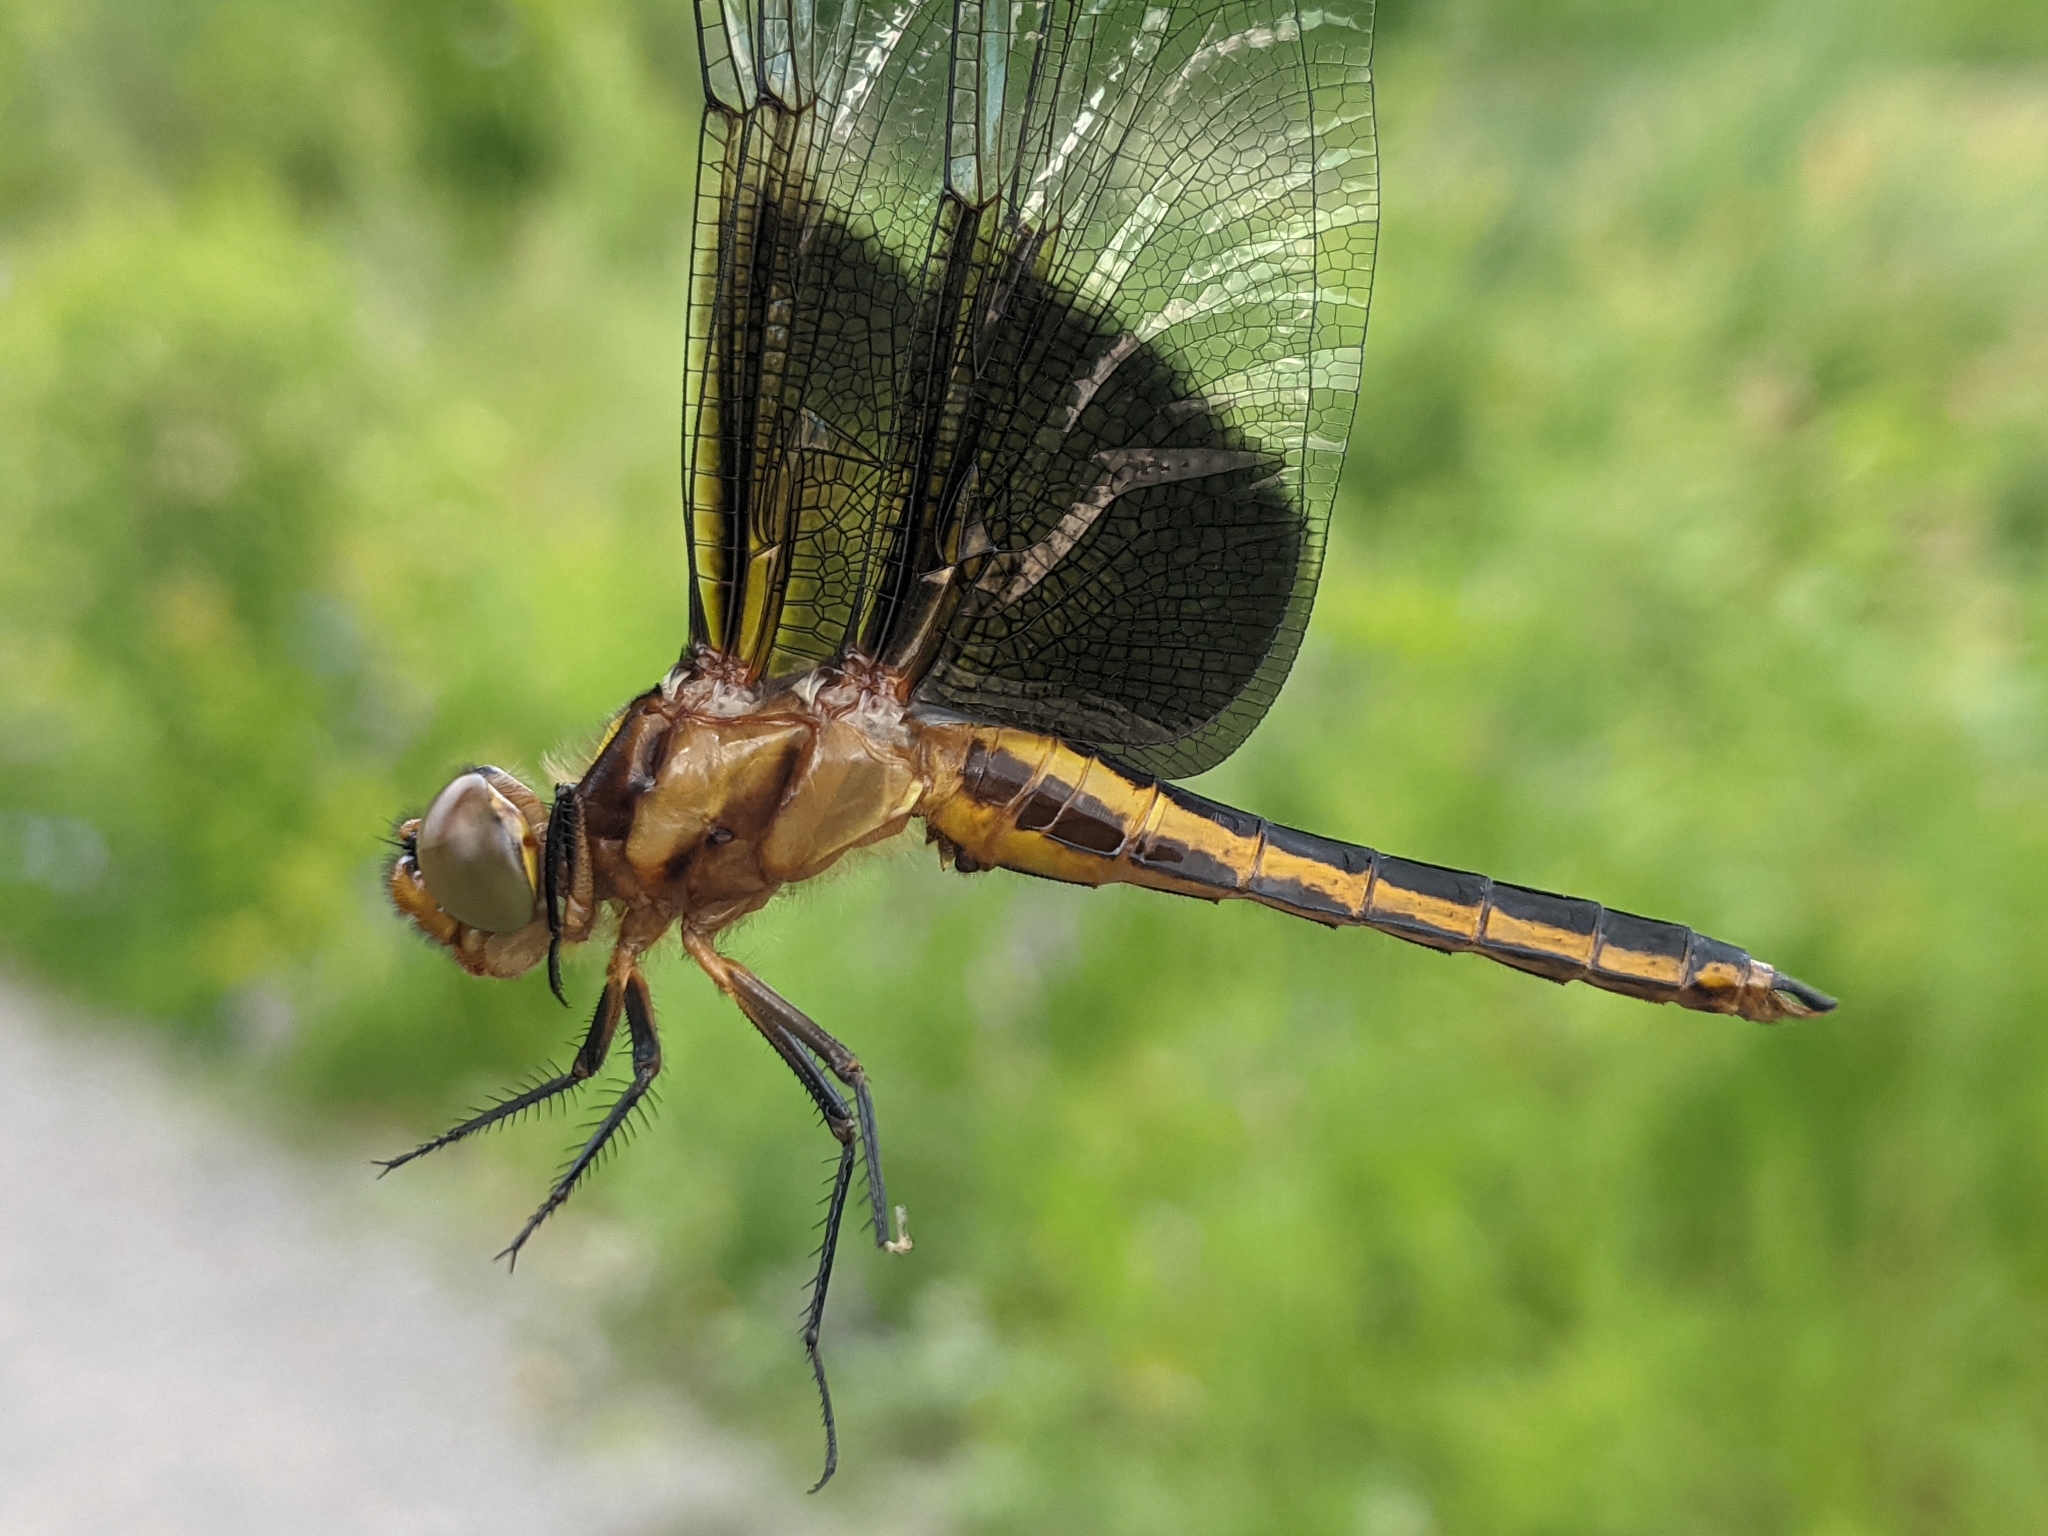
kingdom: Animalia
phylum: Arthropoda
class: Insecta
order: Odonata
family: Libellulidae
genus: Libellula
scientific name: Libellula luctuosa
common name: Widow skimmer
